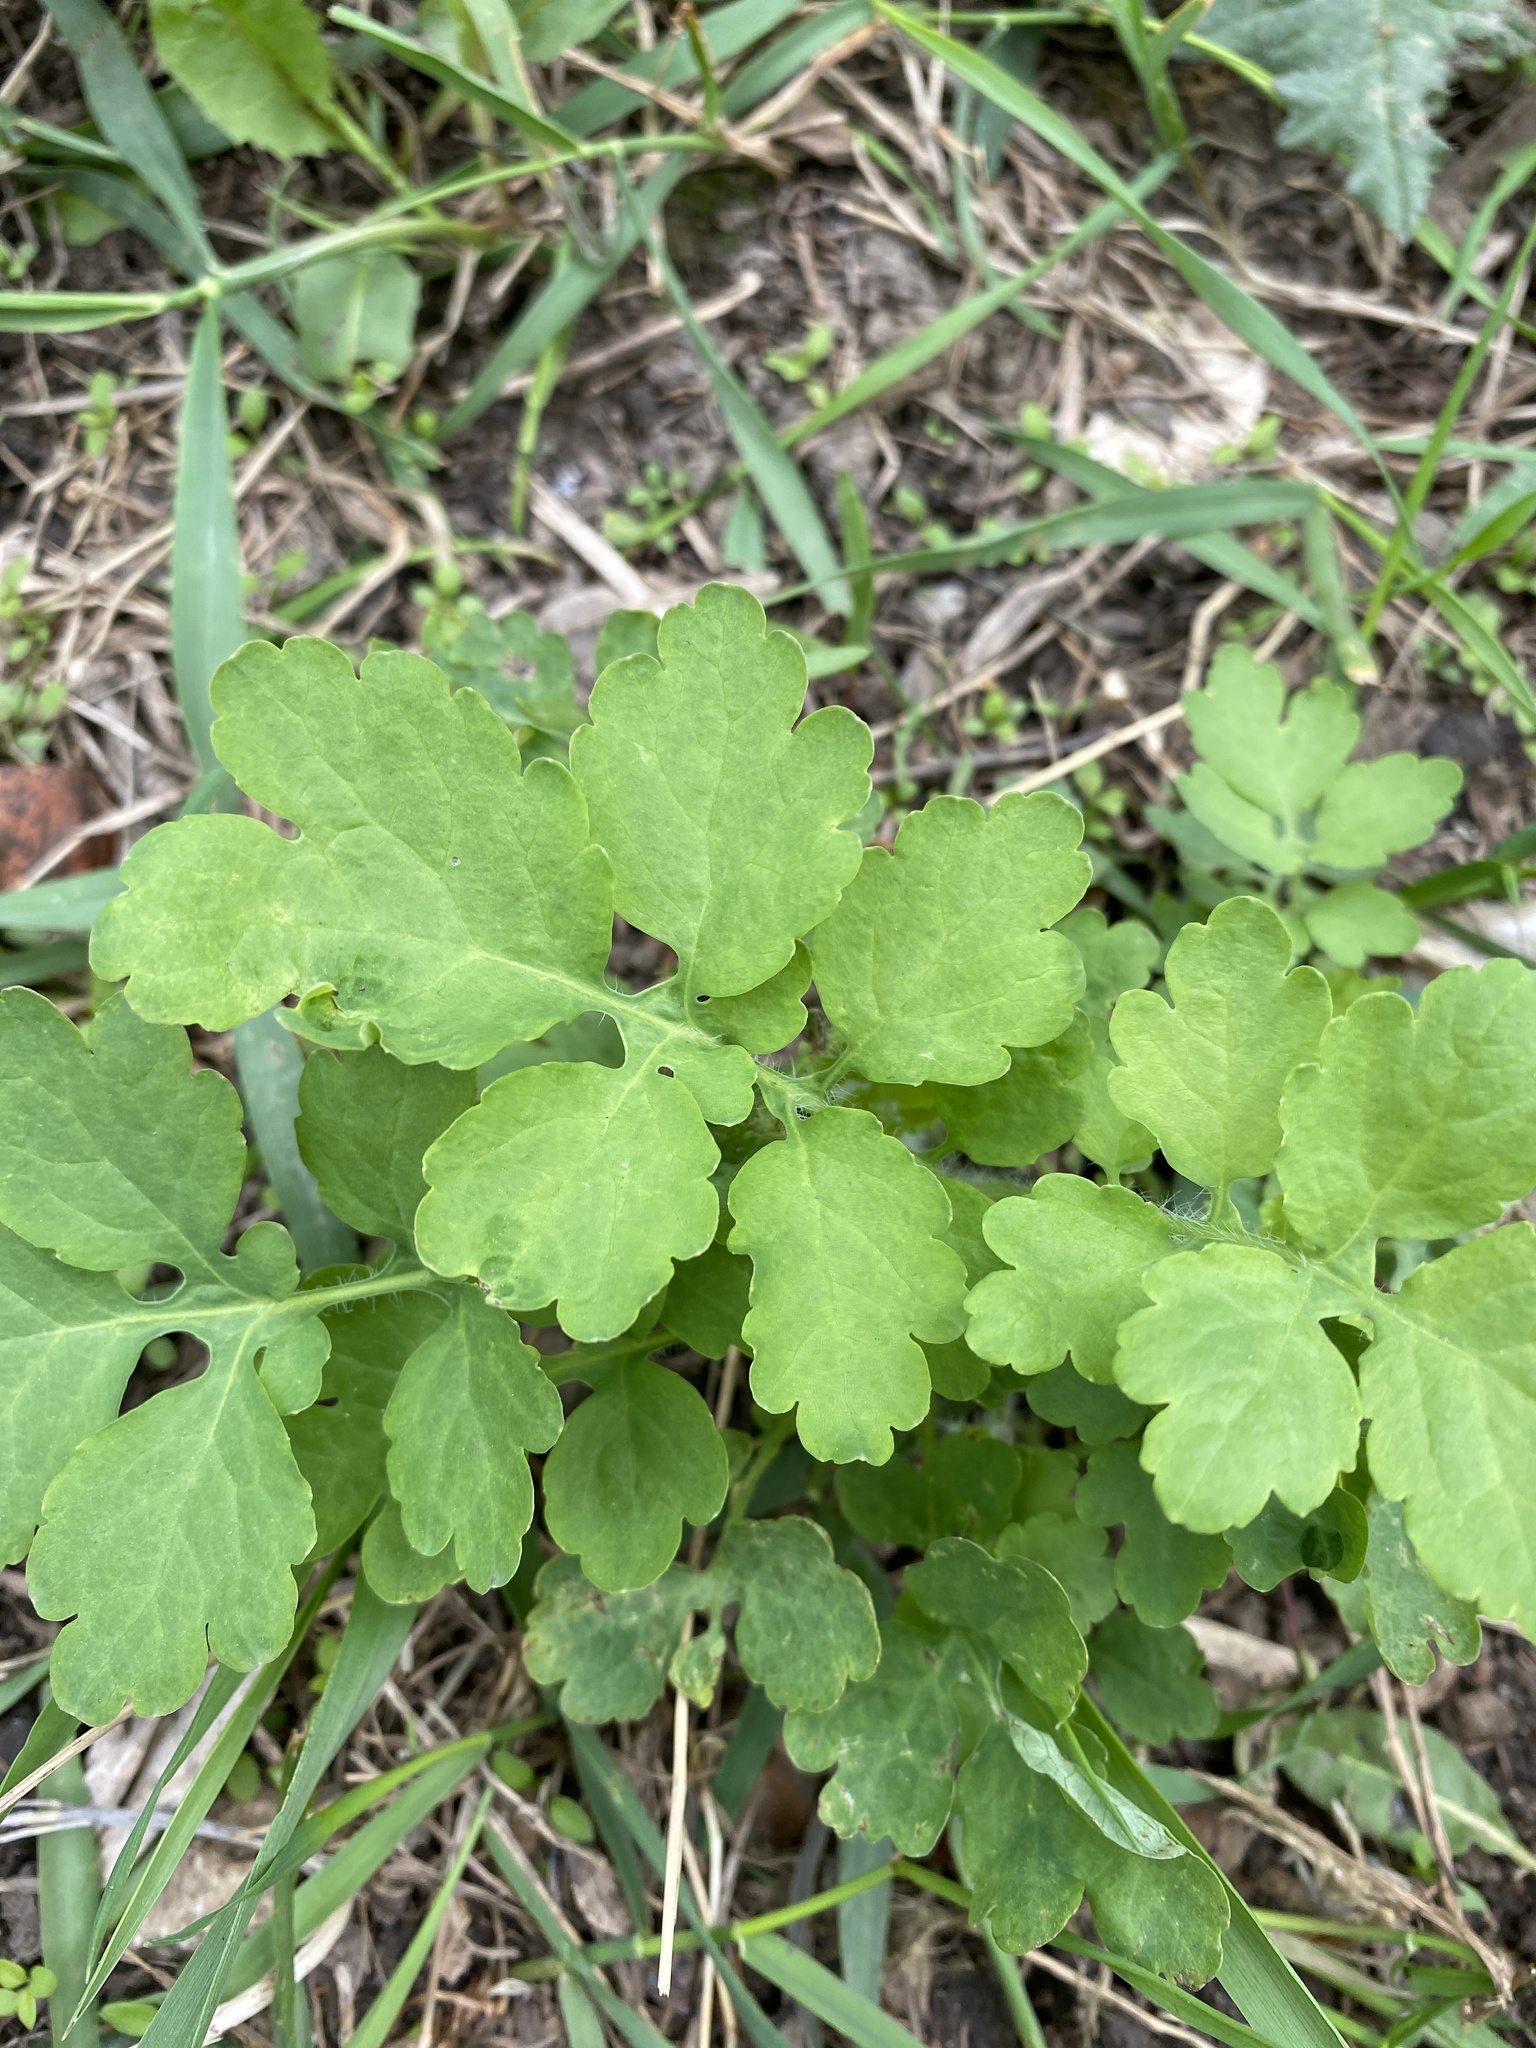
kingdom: Plantae
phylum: Tracheophyta
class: Magnoliopsida
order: Ranunculales
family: Papaveraceae
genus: Chelidonium
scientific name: Chelidonium majus
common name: Greater celandine
